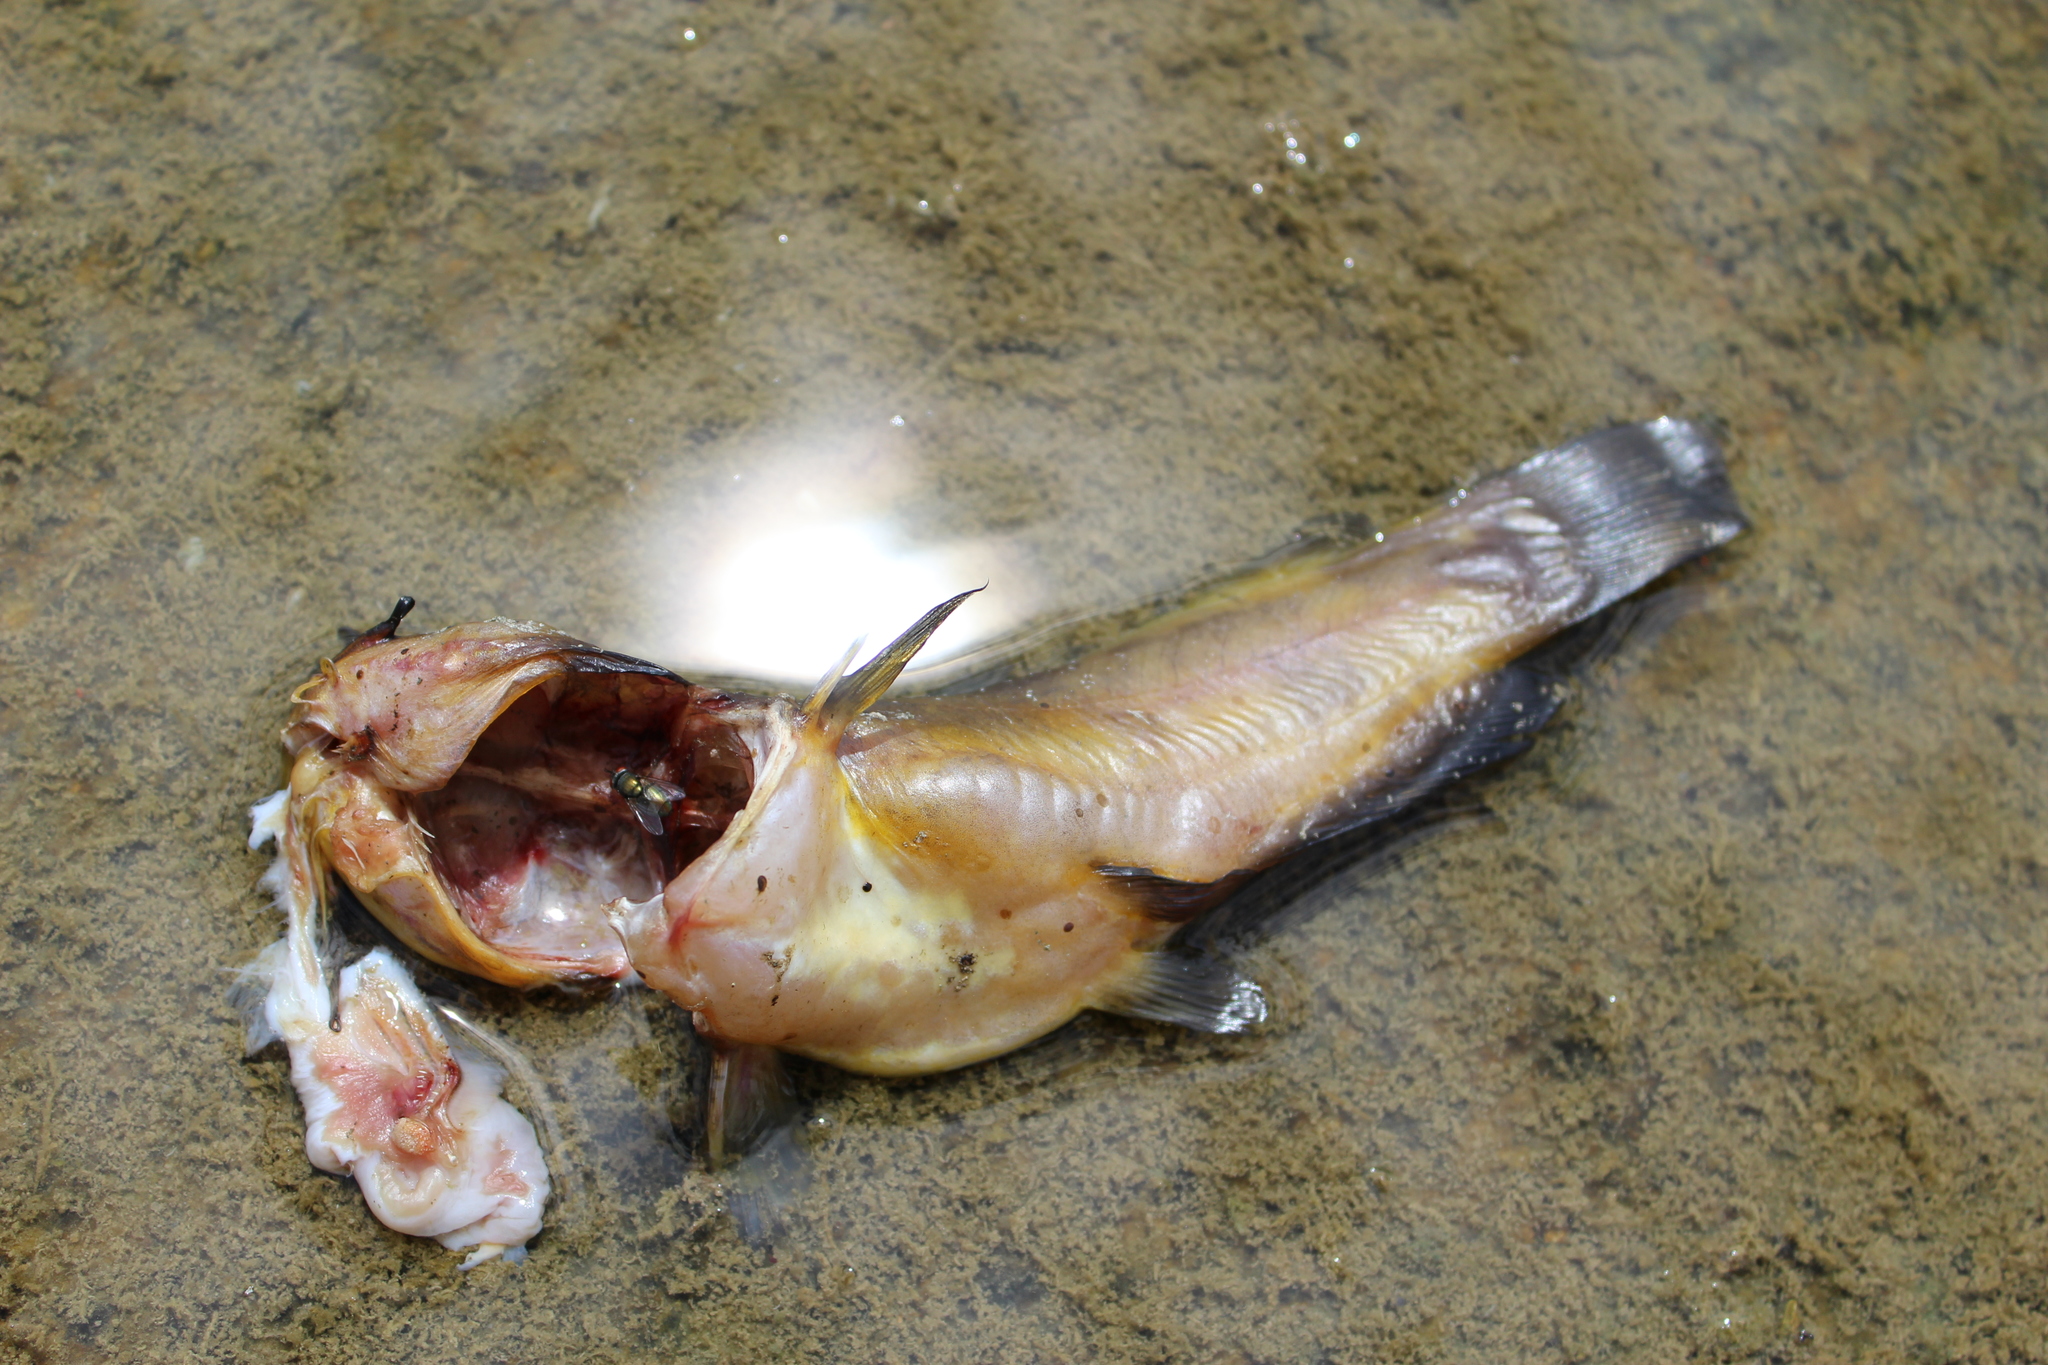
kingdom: Animalia
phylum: Chordata
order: Siluriformes
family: Ictaluridae
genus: Ameiurus
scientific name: Ameiurus natalis
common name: Yellow bullhead
